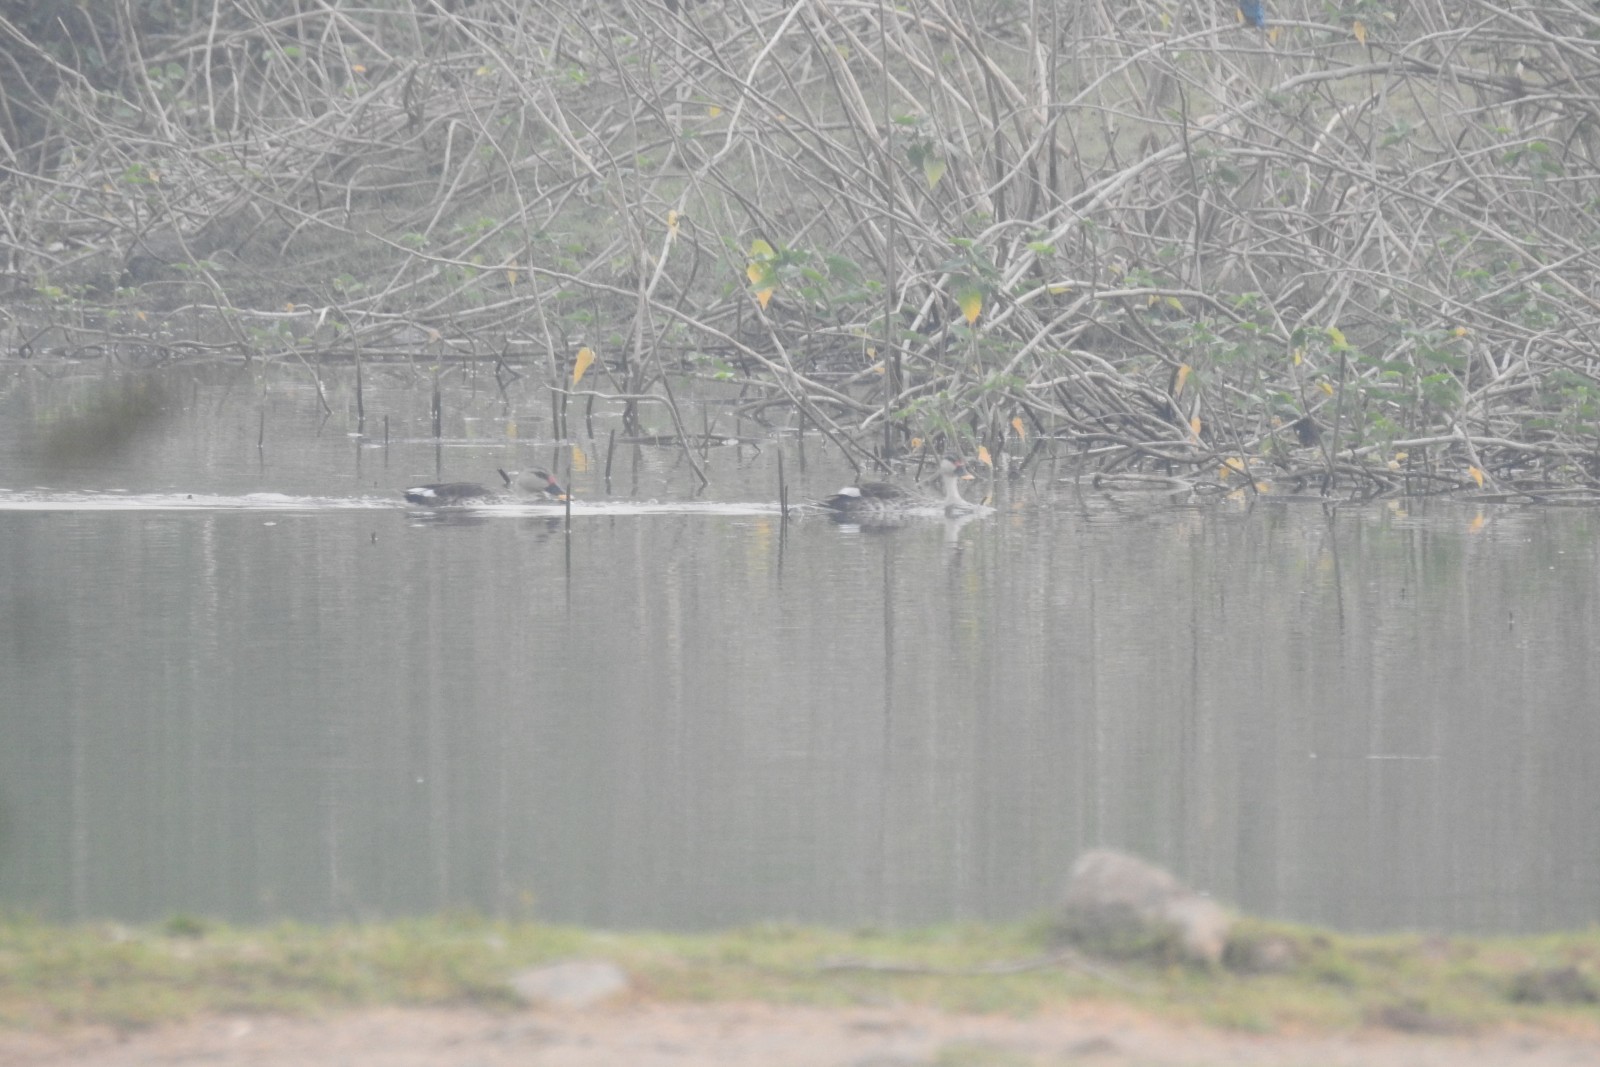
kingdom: Animalia
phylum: Chordata
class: Aves
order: Anseriformes
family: Anatidae
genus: Anas
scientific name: Anas poecilorhyncha
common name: Indian spot-billed duck
